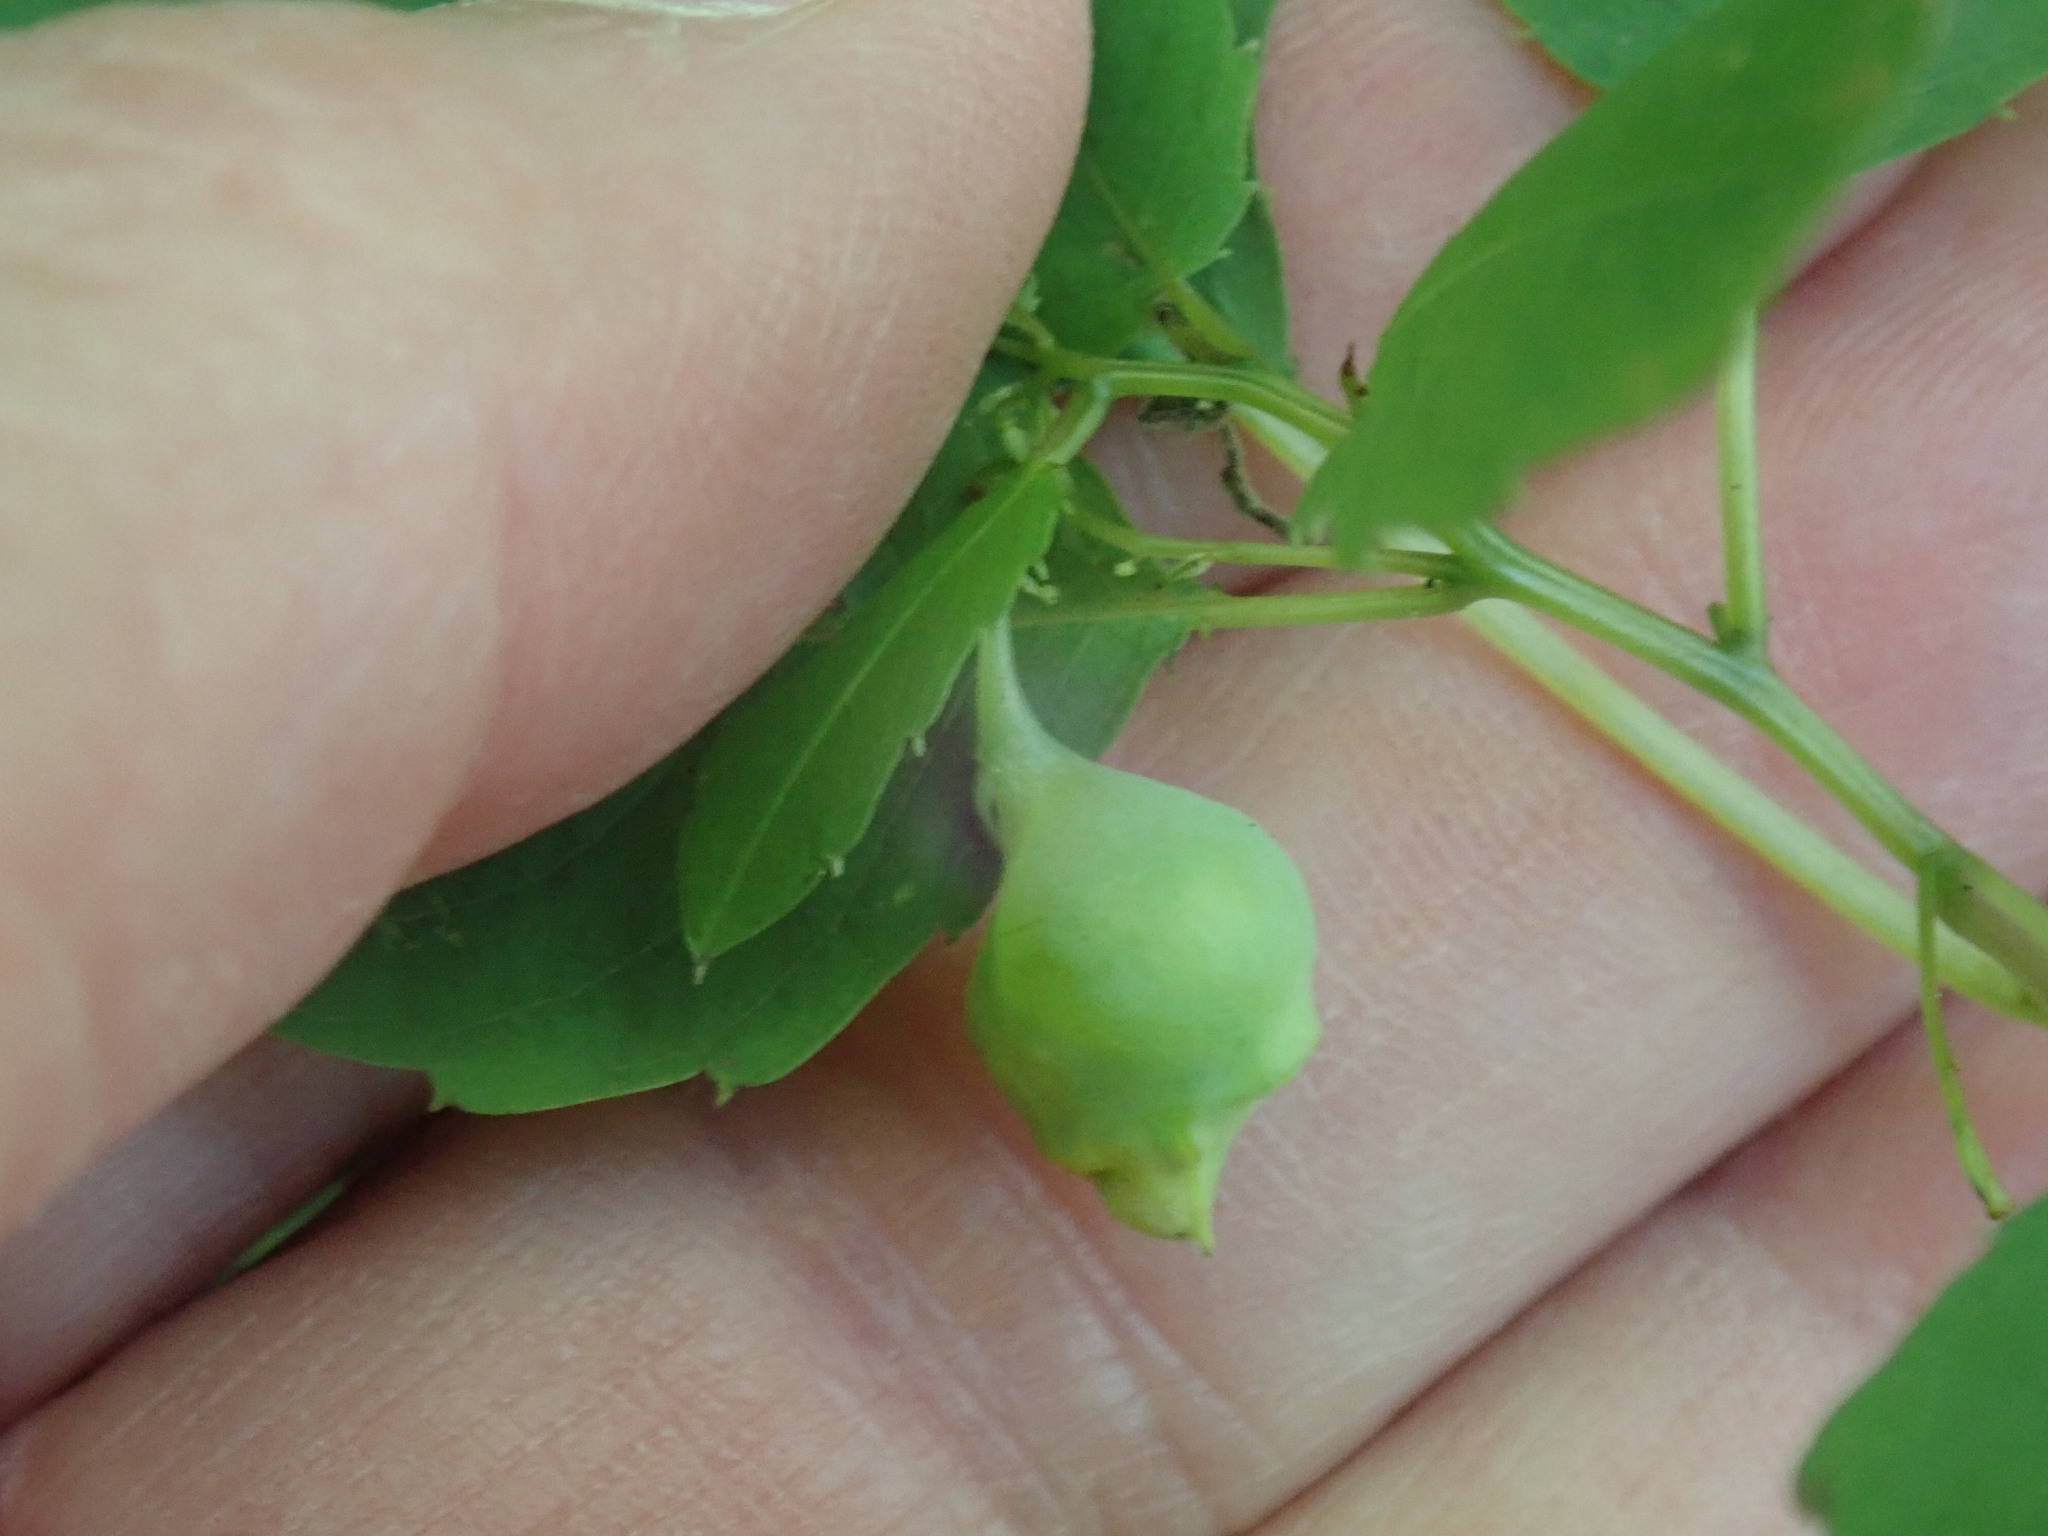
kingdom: Animalia
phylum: Arthropoda
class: Insecta
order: Diptera
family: Cecidomyiidae
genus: Schizomyia
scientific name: Schizomyia impatientis
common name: Jewelweed gall midge
